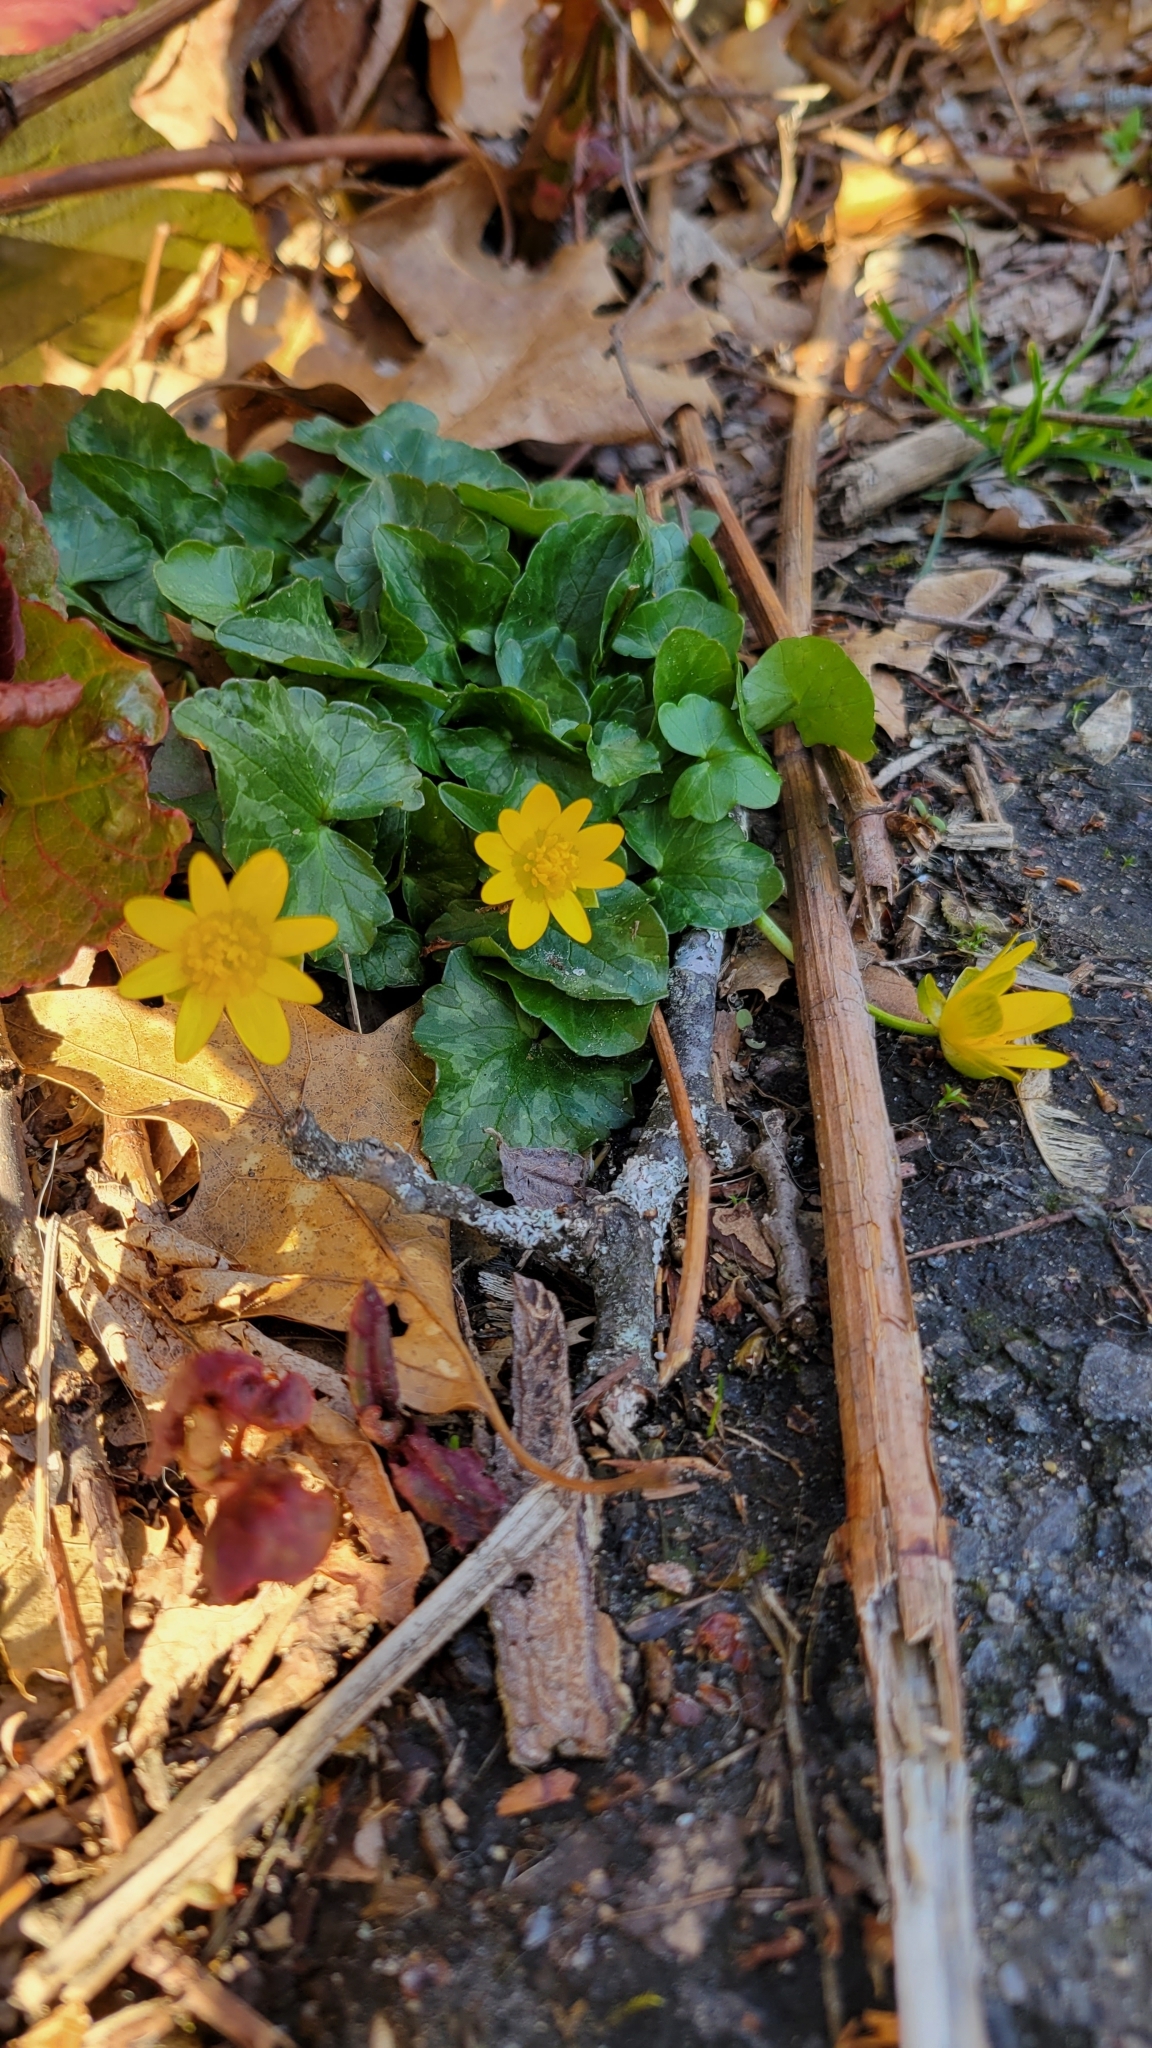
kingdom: Plantae
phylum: Tracheophyta
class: Magnoliopsida
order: Ranunculales
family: Ranunculaceae
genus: Ficaria
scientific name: Ficaria verna
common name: Lesser celandine
